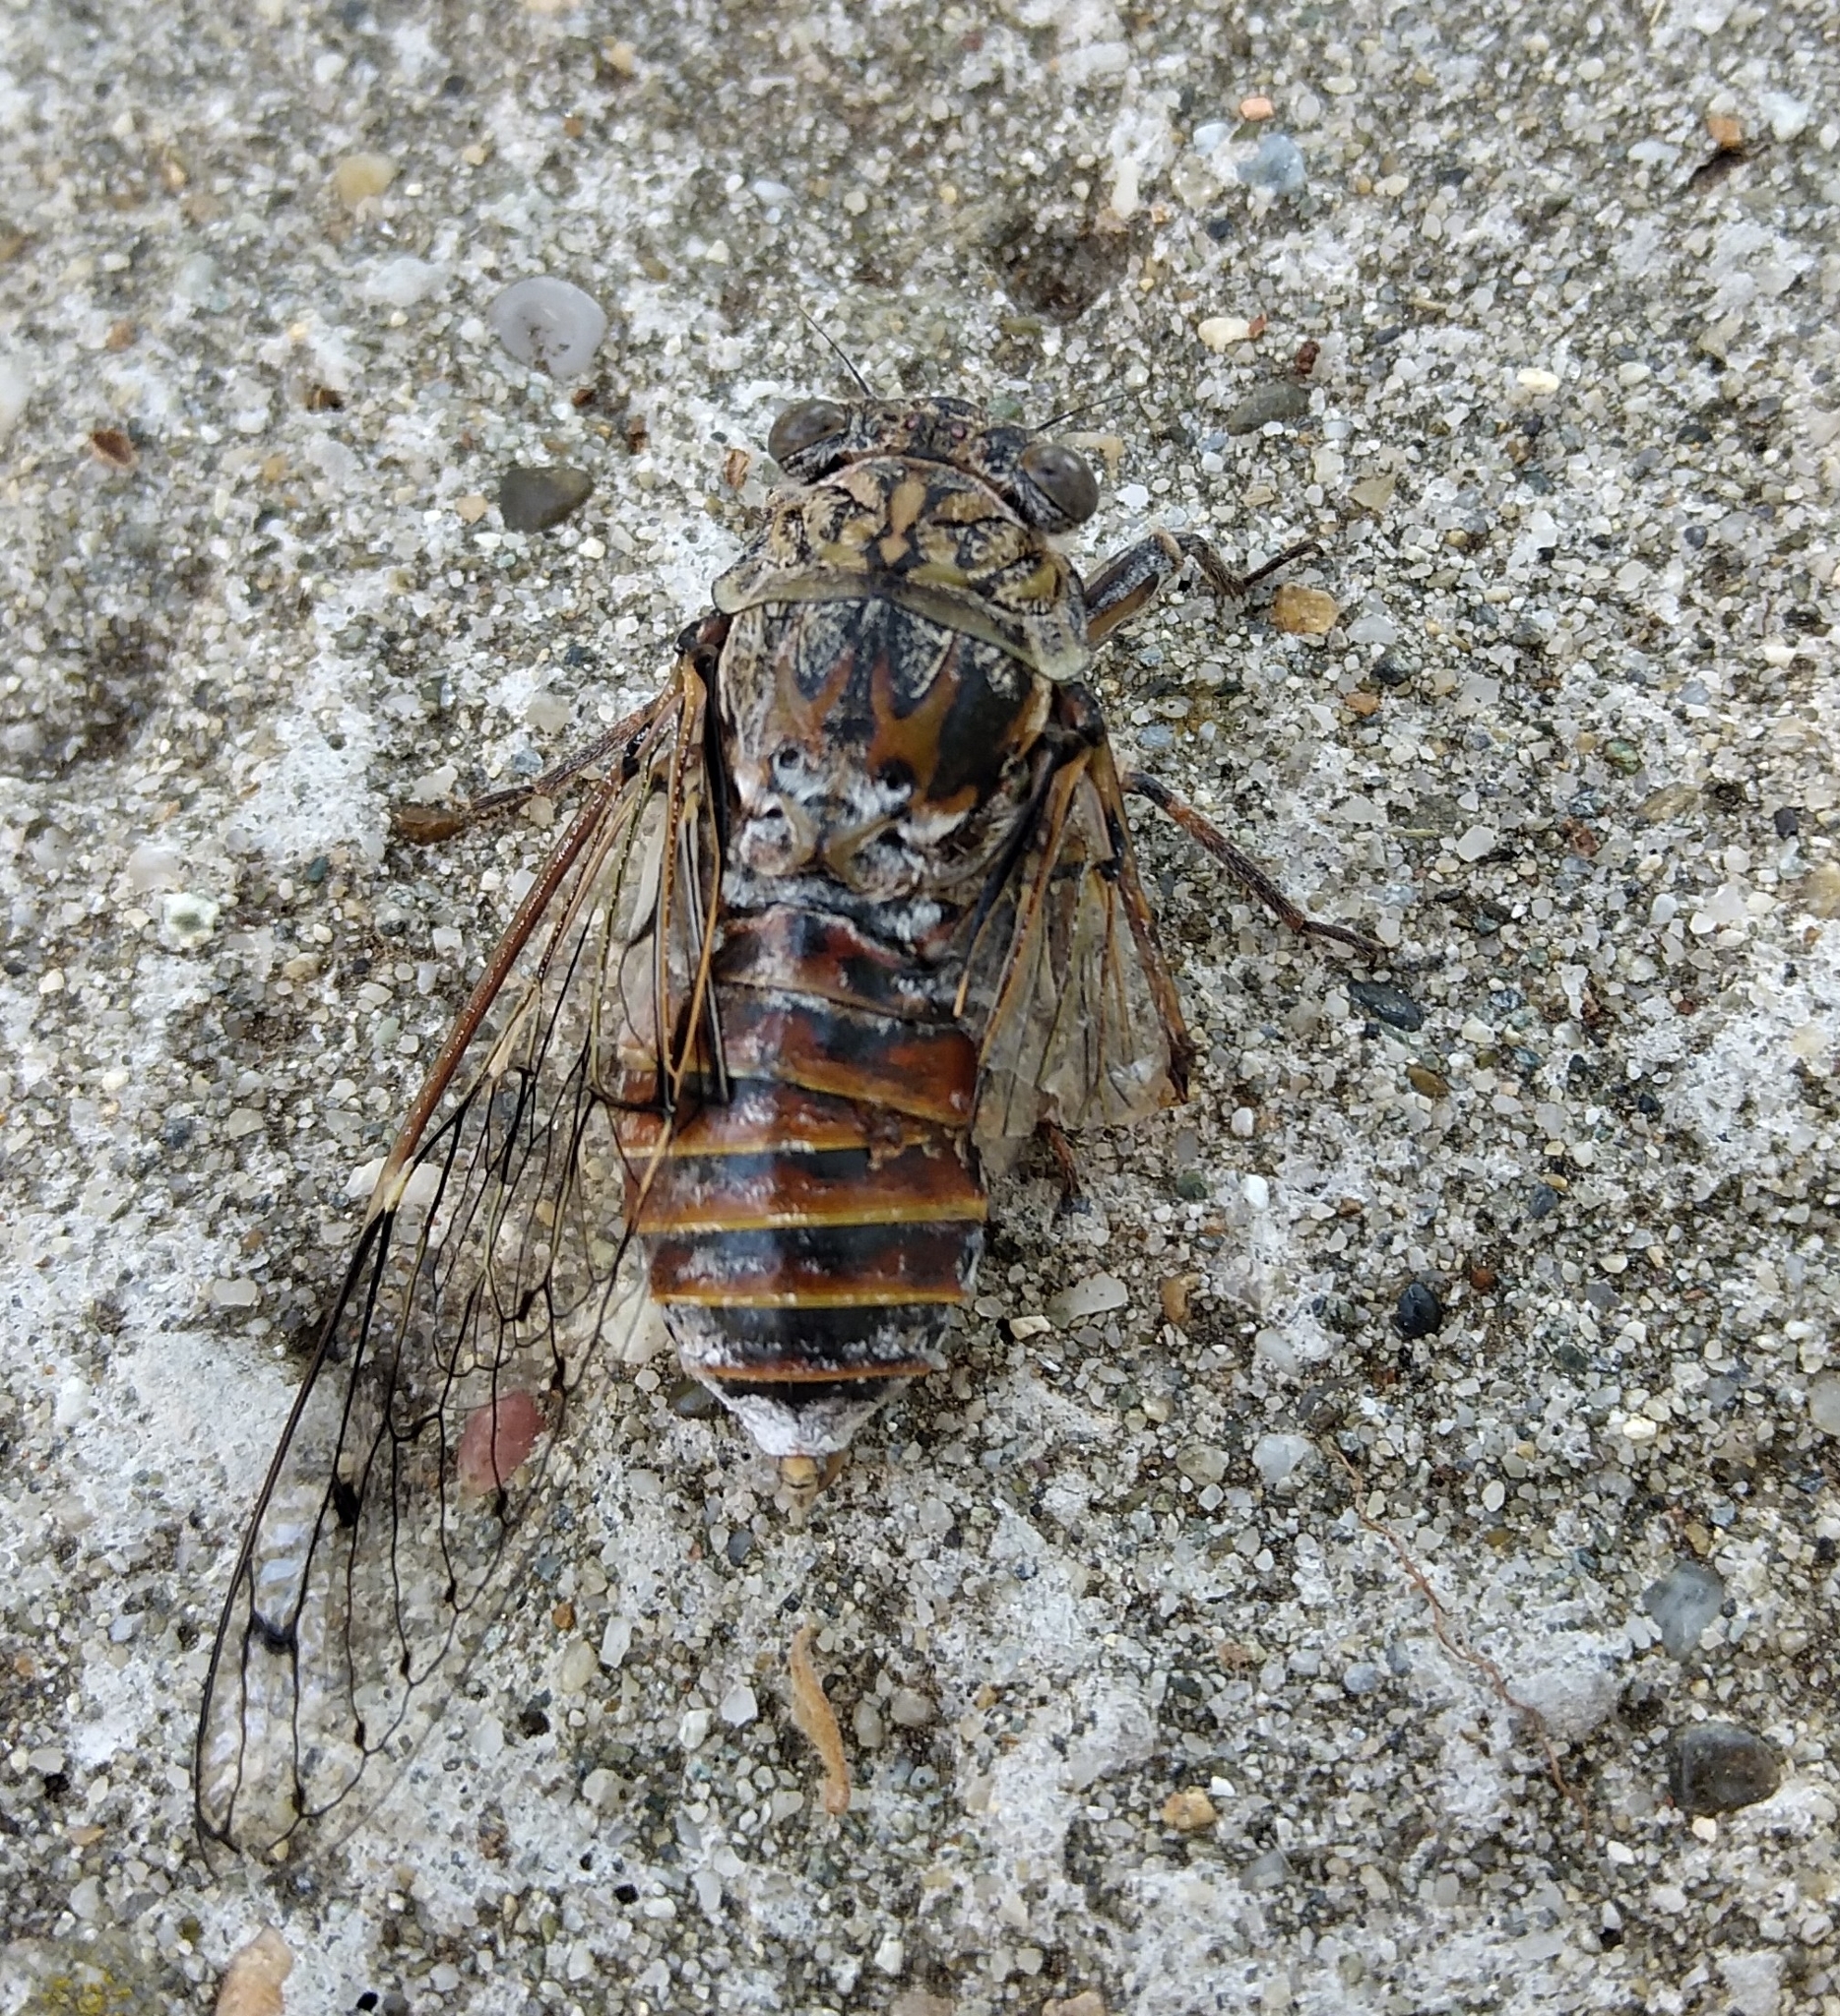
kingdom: Animalia
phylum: Arthropoda
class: Insecta
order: Hemiptera
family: Cicadidae
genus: Cicada
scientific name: Cicada orni
